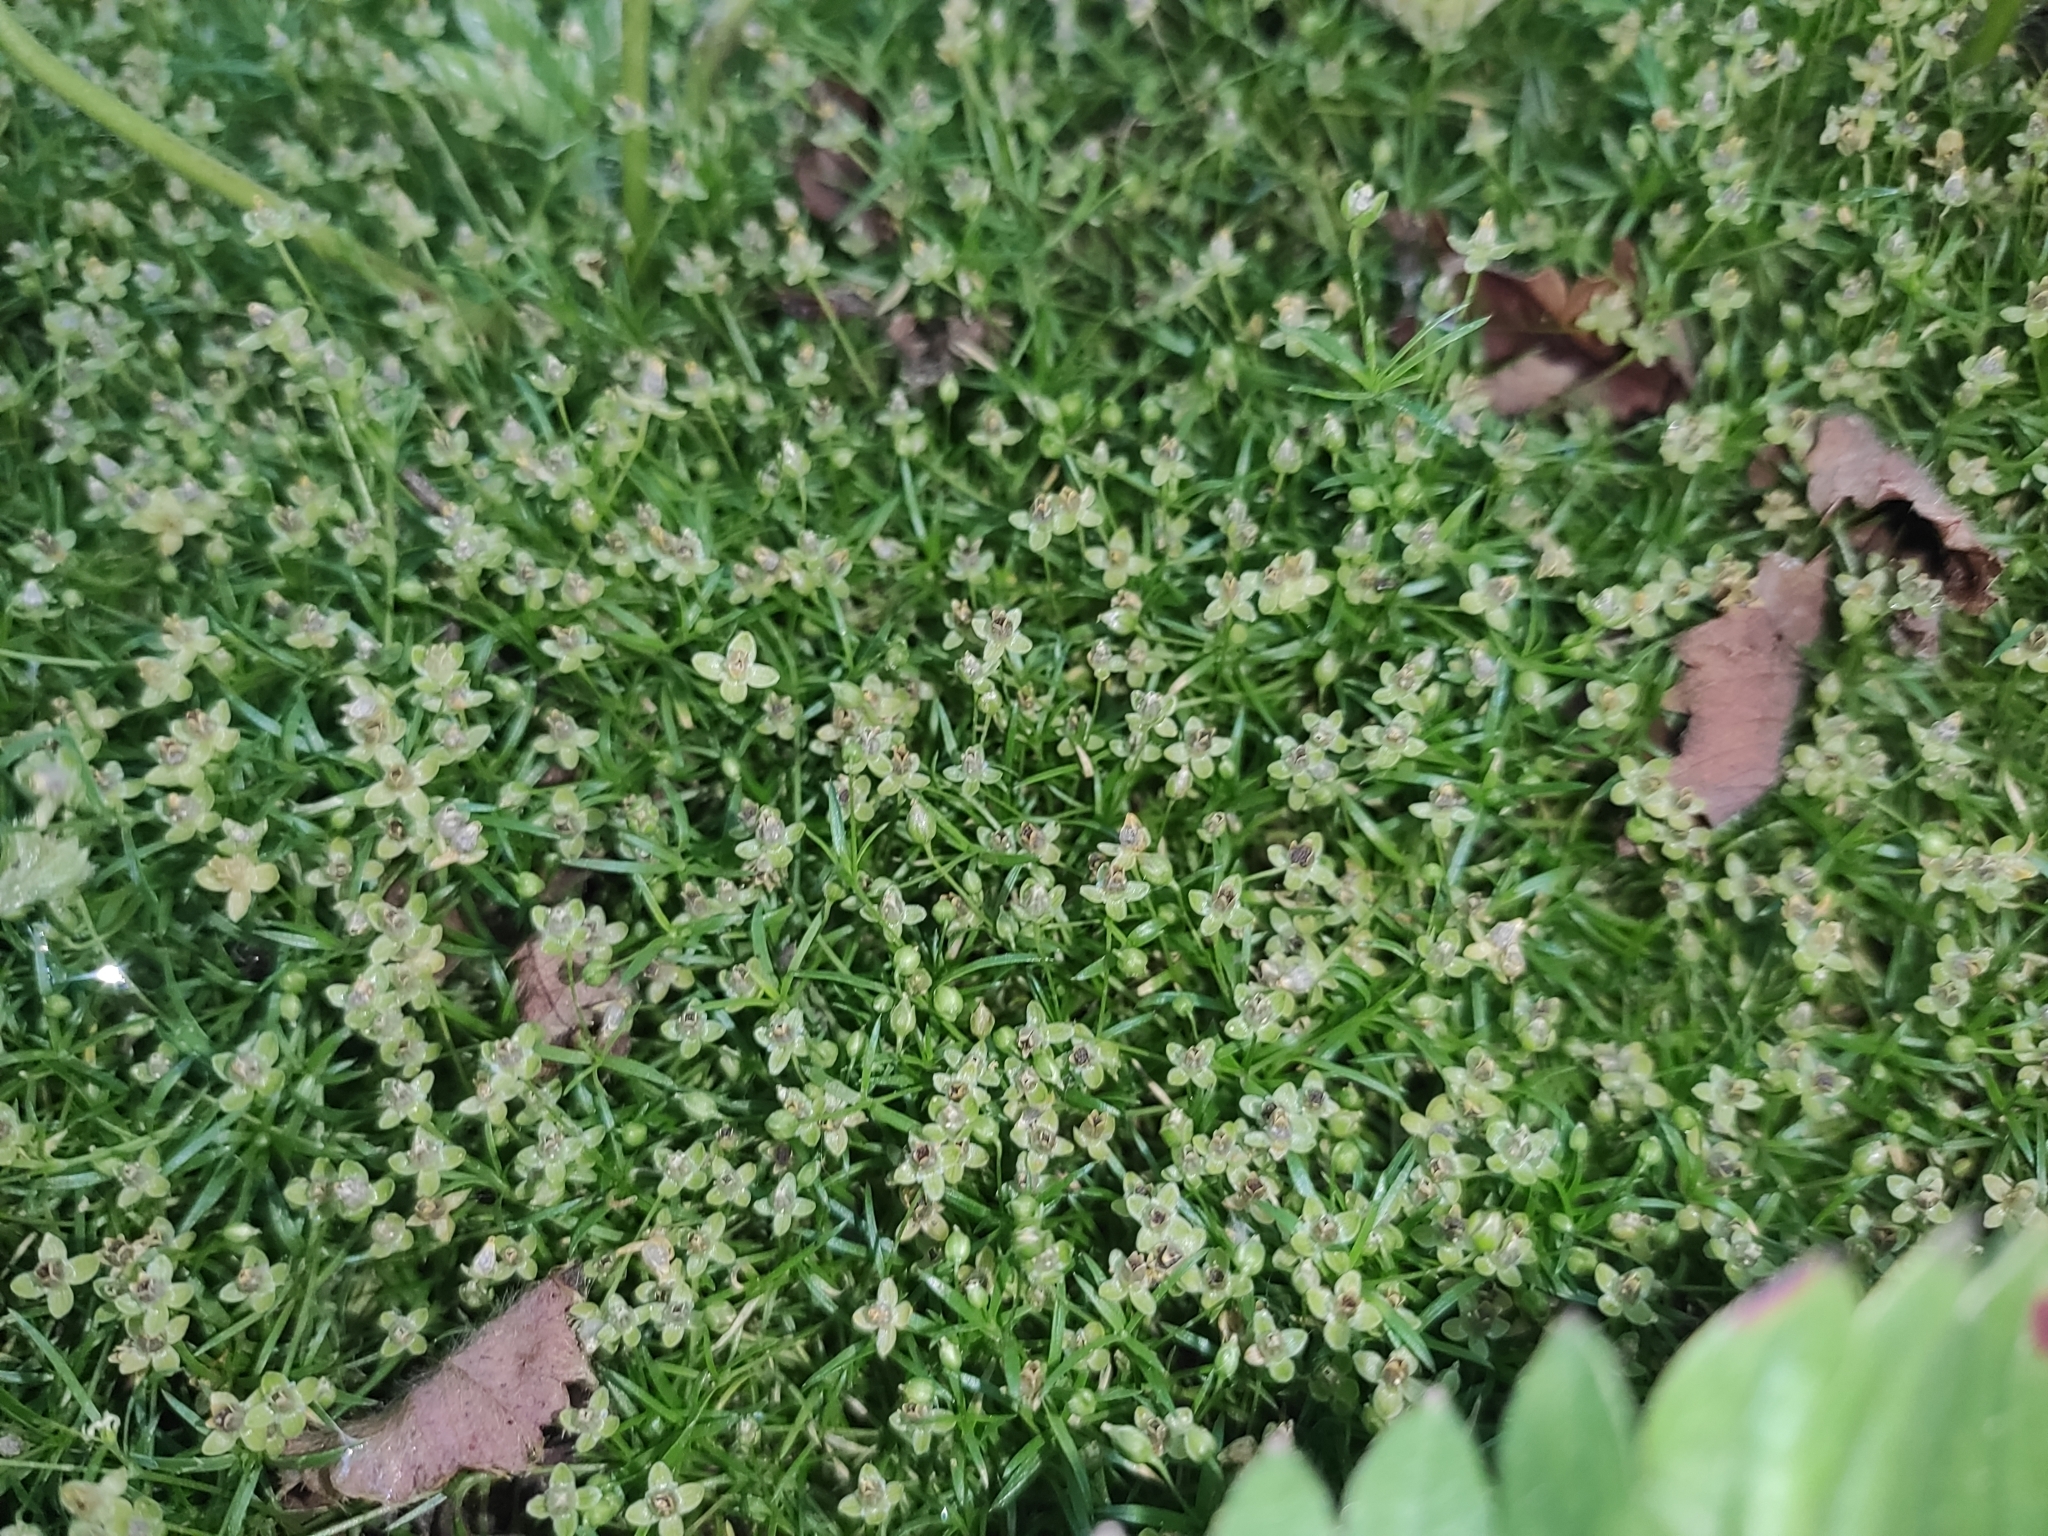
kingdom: Plantae
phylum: Tracheophyta
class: Magnoliopsida
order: Caryophyllales
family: Caryophyllaceae
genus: Sagina
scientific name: Sagina procumbens
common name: Procumbent pearlwort
